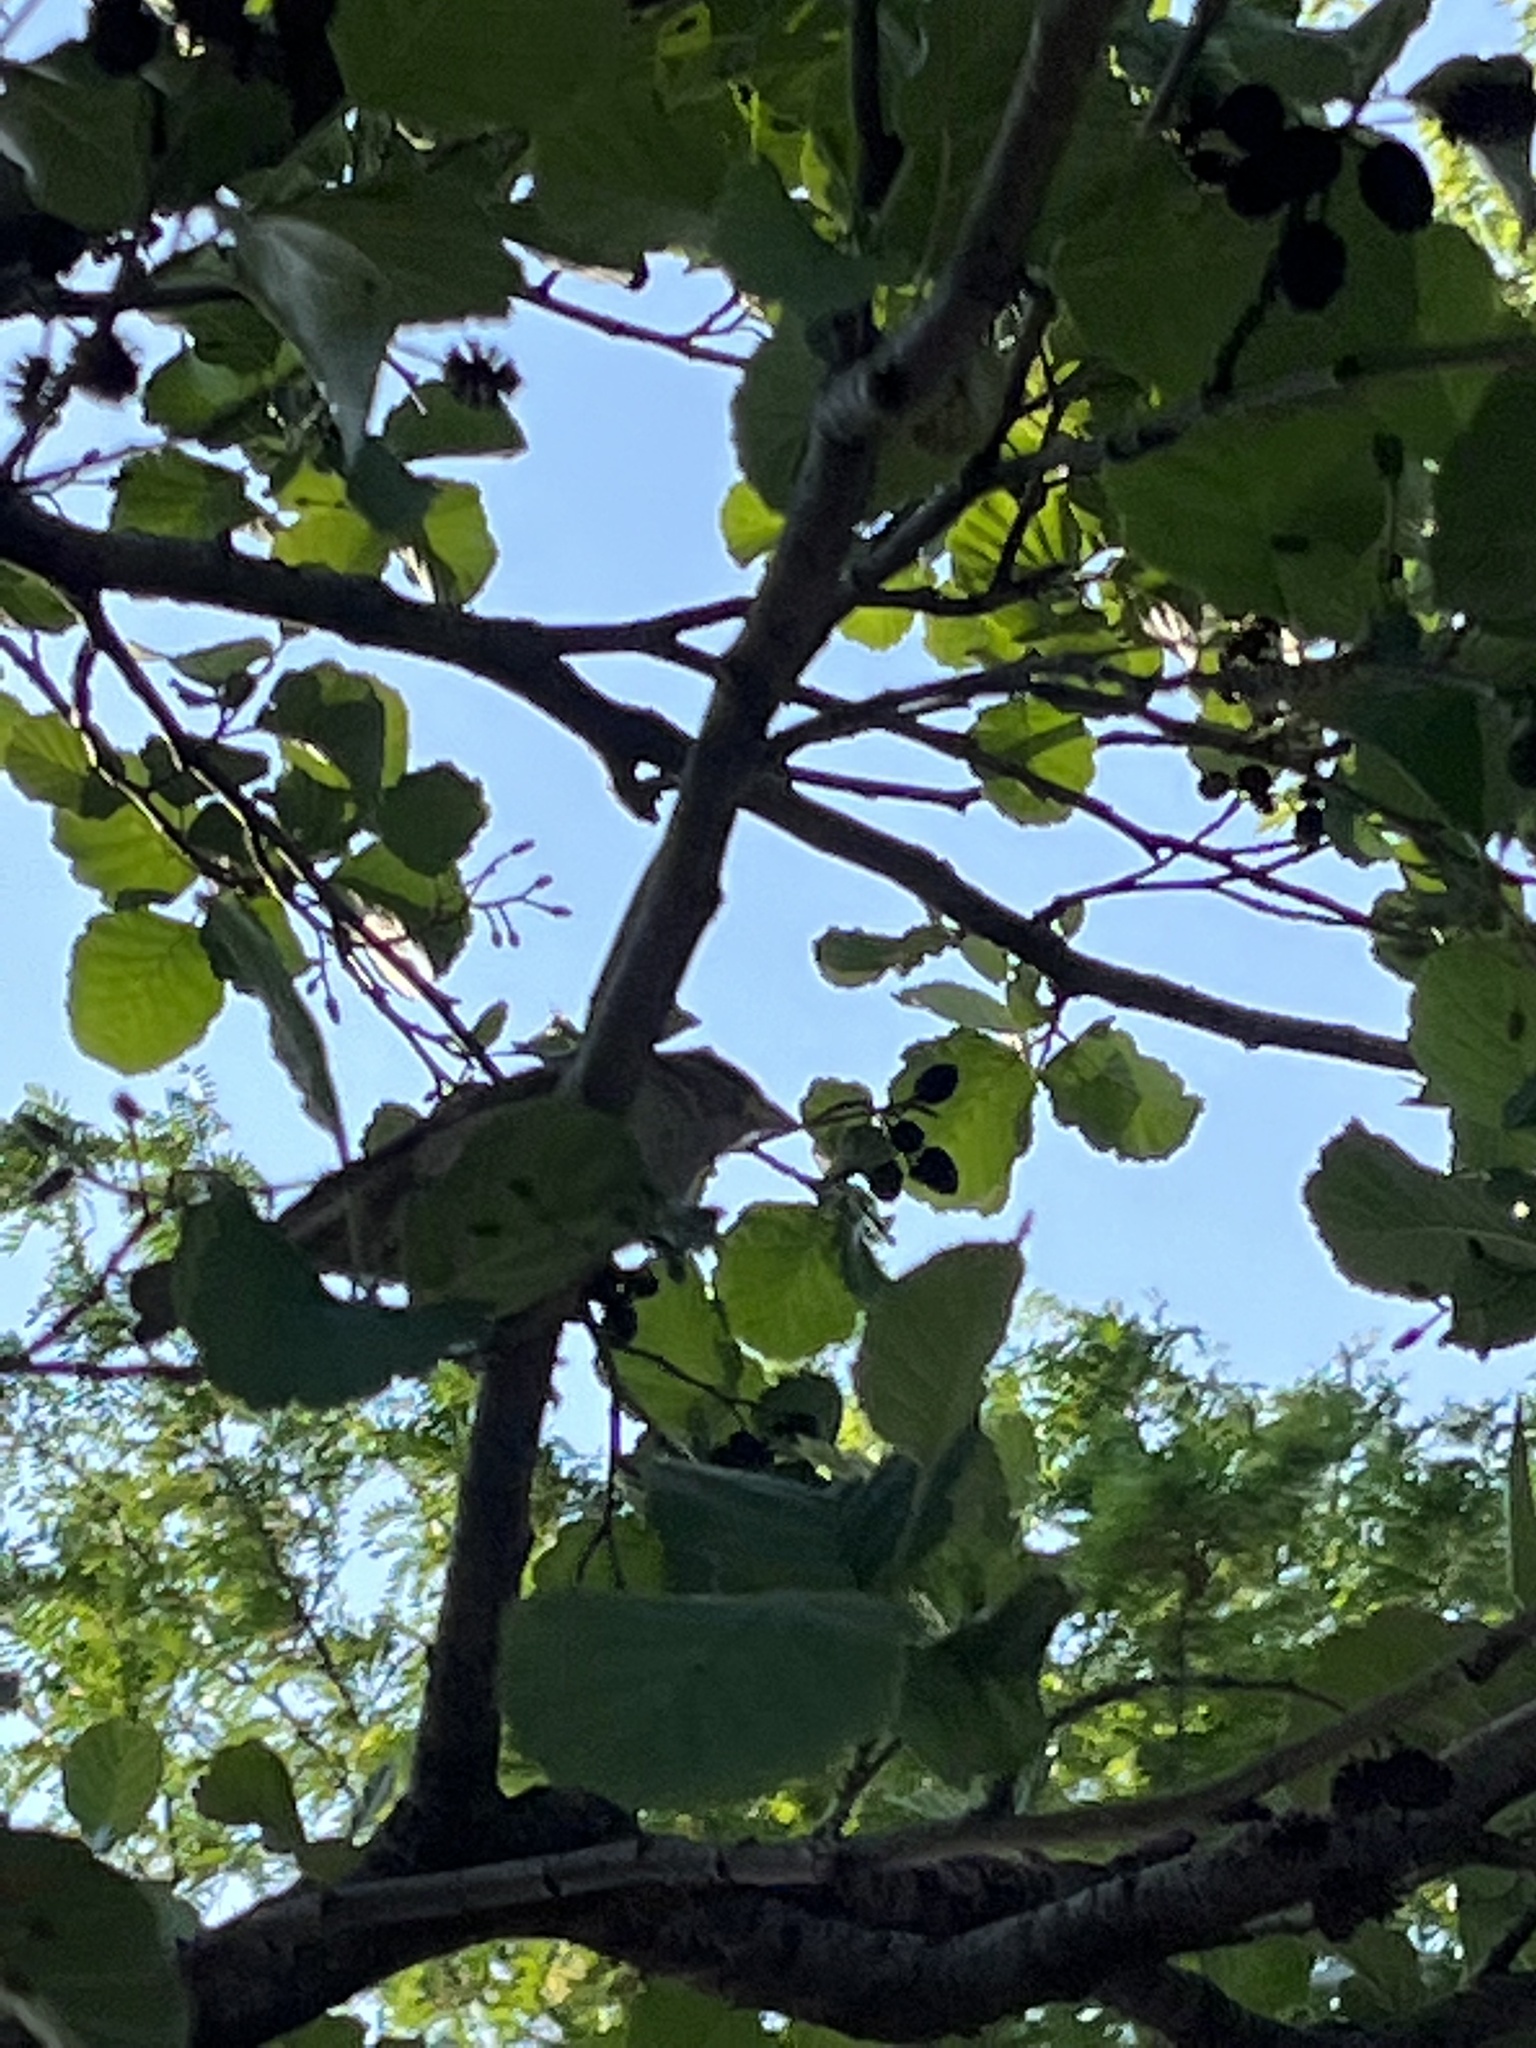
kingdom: Animalia
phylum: Chordata
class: Aves
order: Passeriformes
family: Passeridae
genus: Passer
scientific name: Passer domesticus
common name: House sparrow
